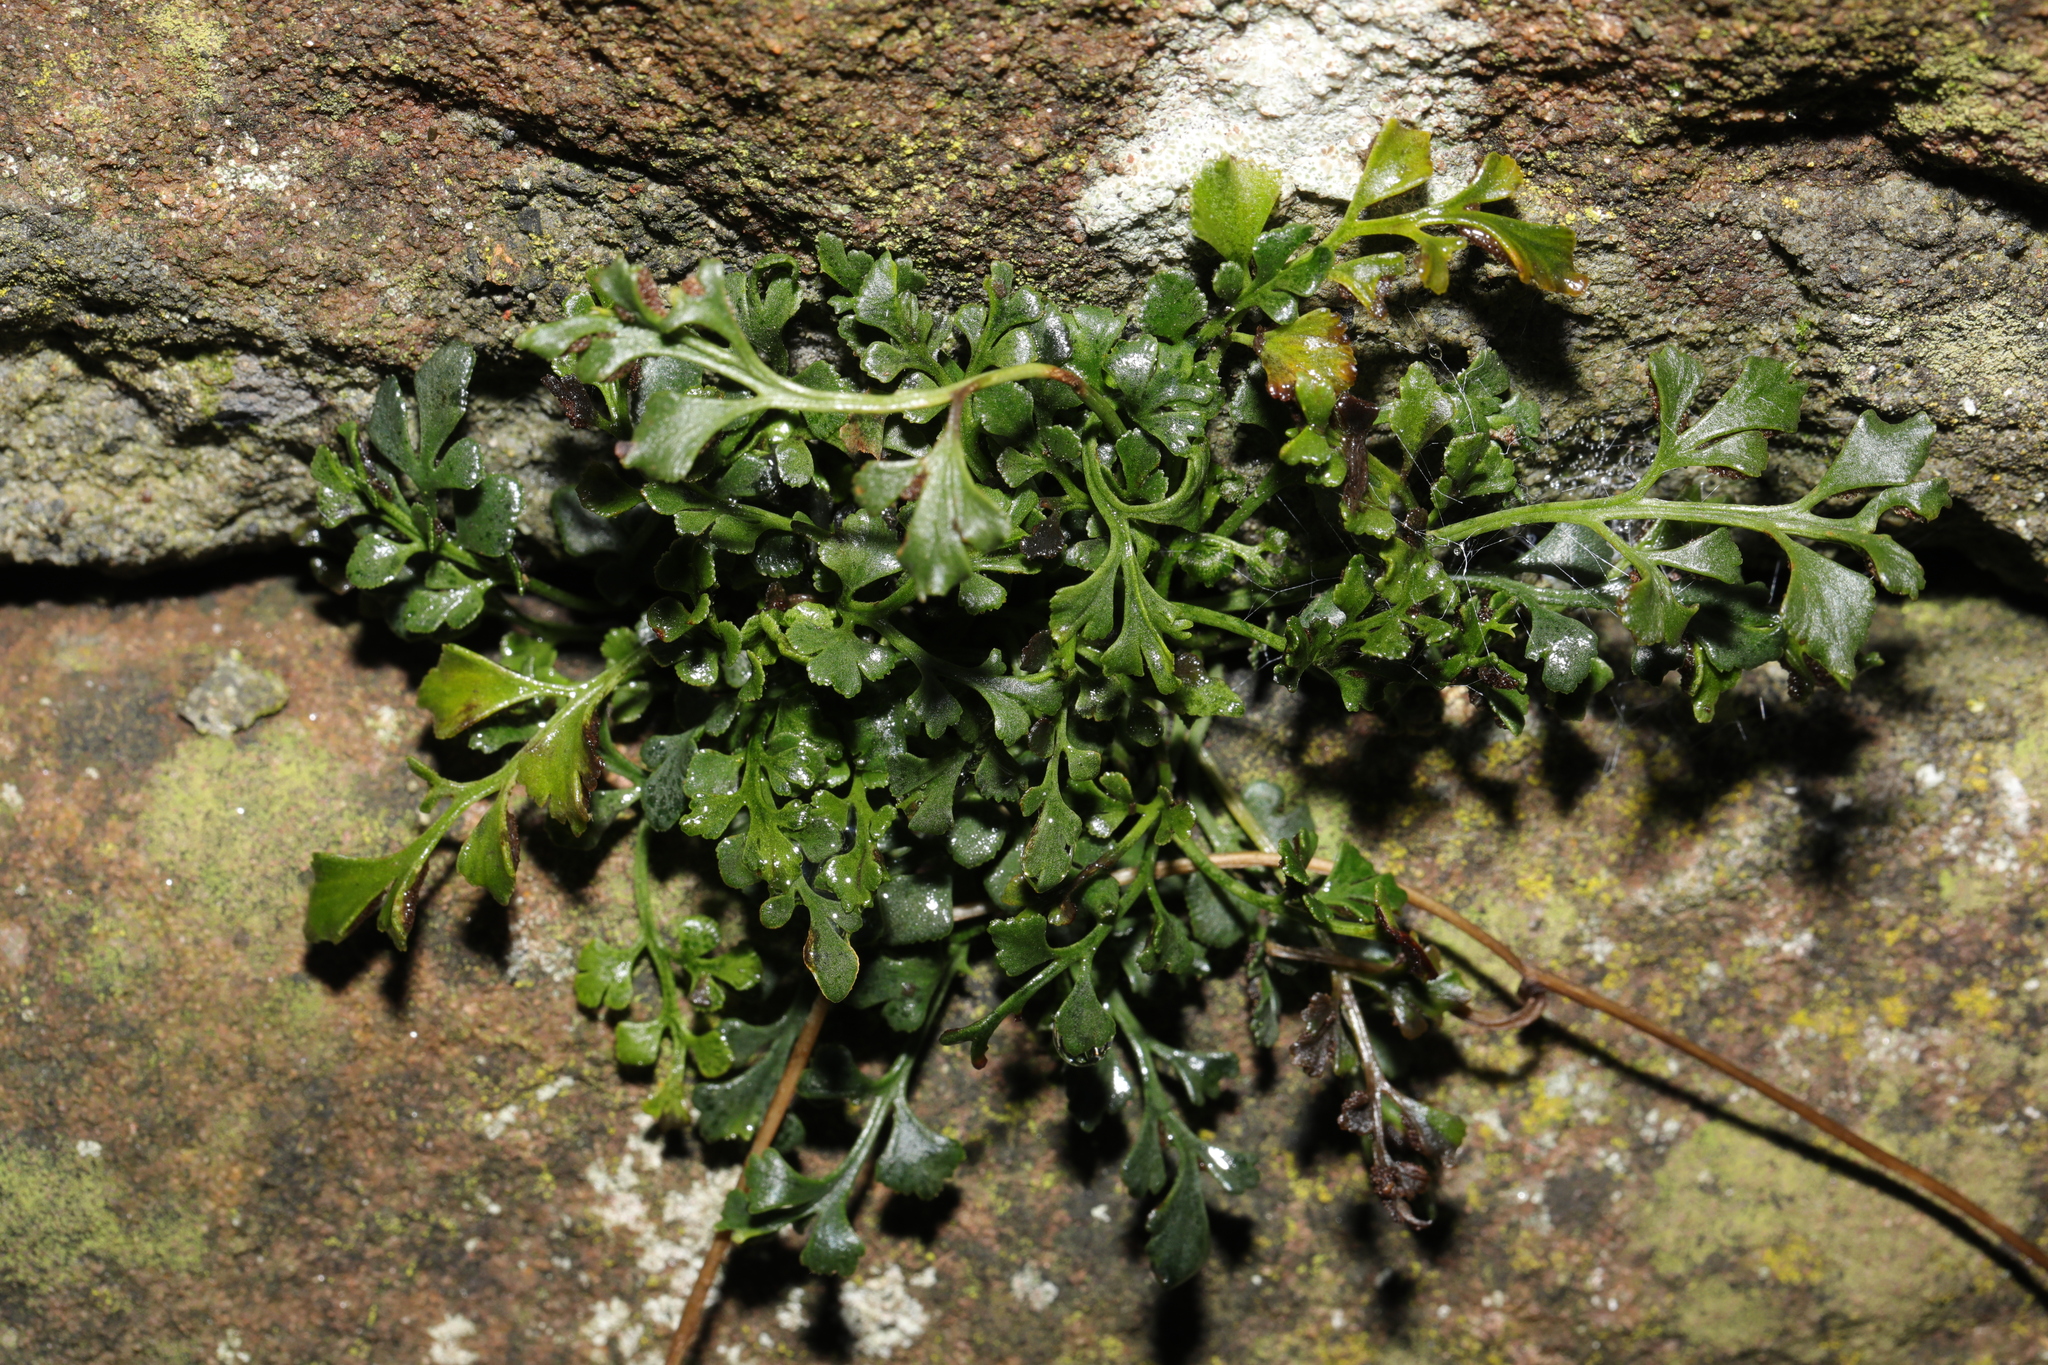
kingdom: Plantae
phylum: Tracheophyta
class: Polypodiopsida
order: Polypodiales
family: Aspleniaceae
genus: Asplenium
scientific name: Asplenium ruta-muraria
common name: Wall-rue
